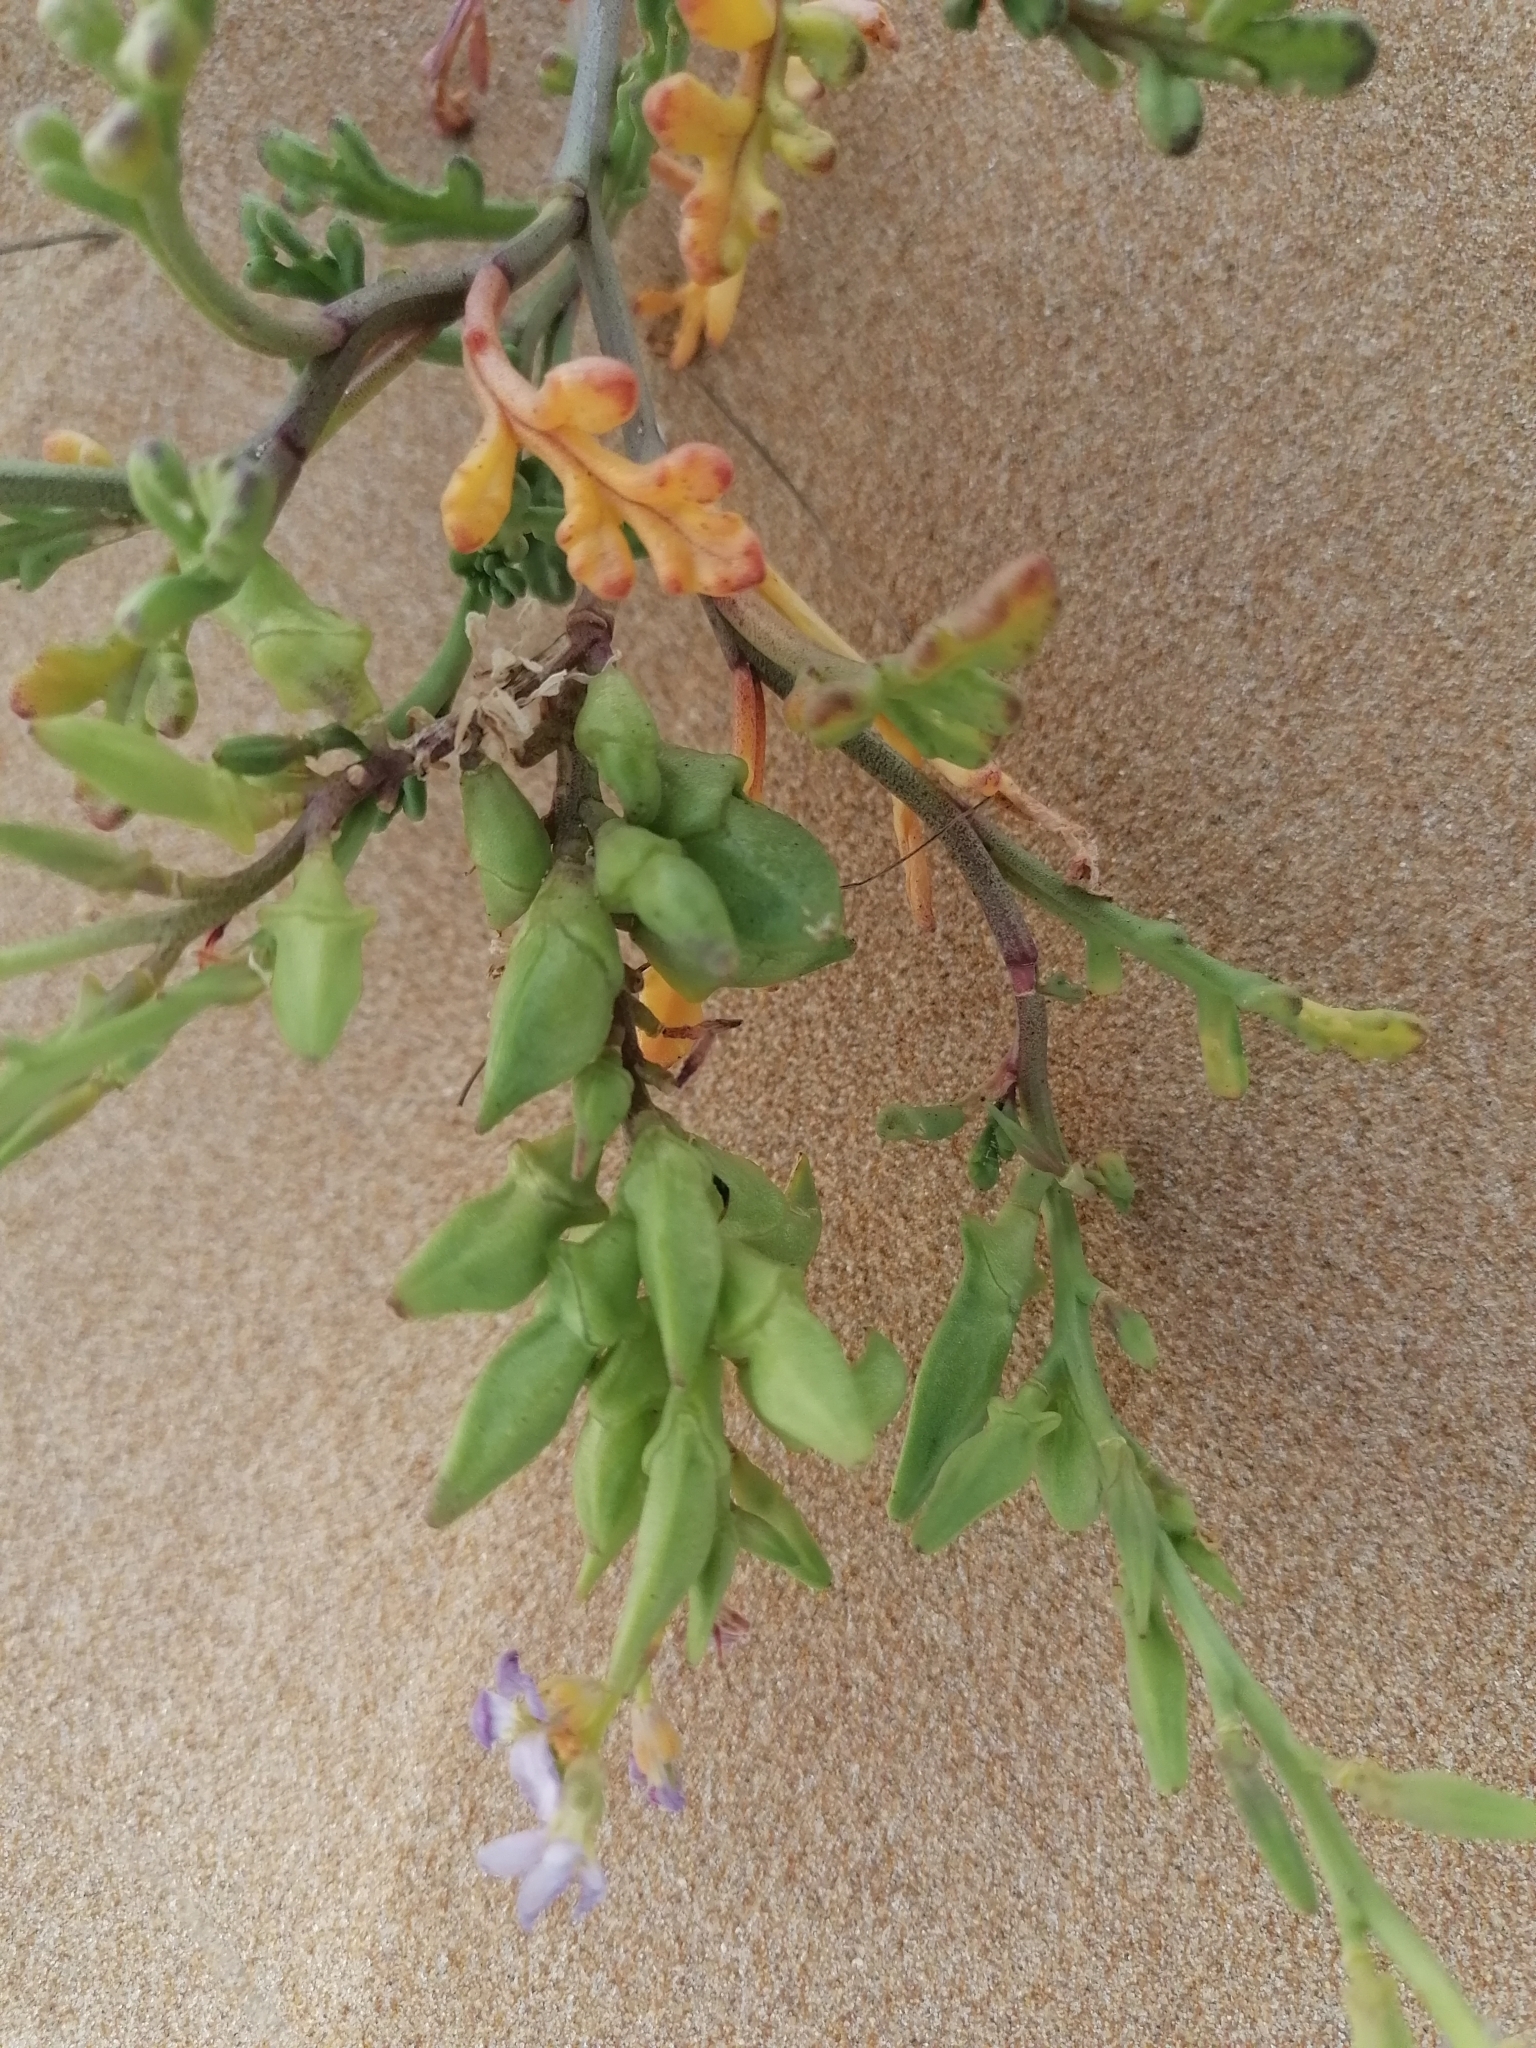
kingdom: Plantae
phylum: Tracheophyta
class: Magnoliopsida
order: Brassicales
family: Brassicaceae
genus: Cakile
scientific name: Cakile maritima
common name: Sea rocket
